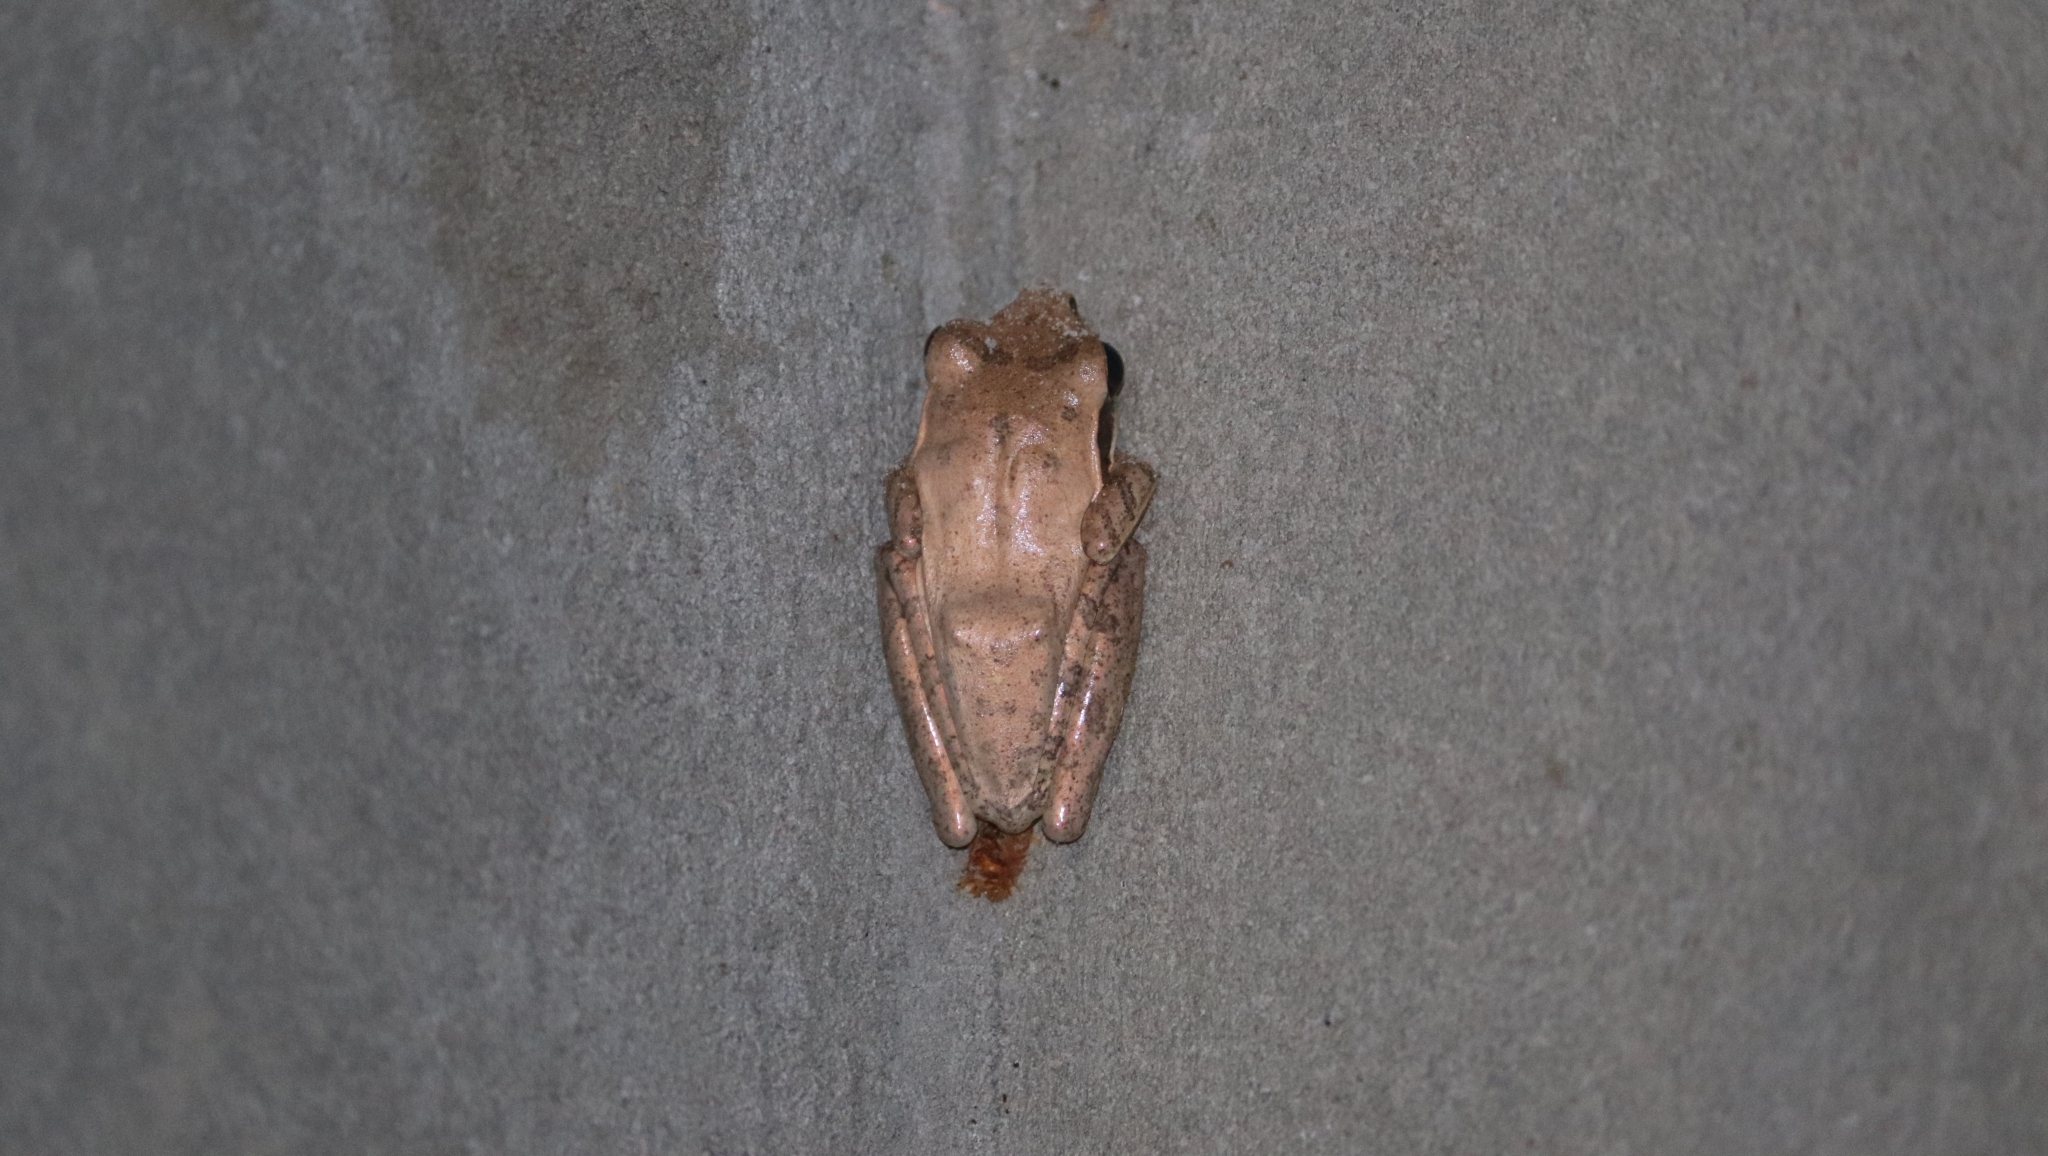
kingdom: Animalia
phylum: Chordata
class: Amphibia
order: Anura
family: Rhacophoridae
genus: Polypedates
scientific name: Polypedates maculatus
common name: Himalayan tree frog
